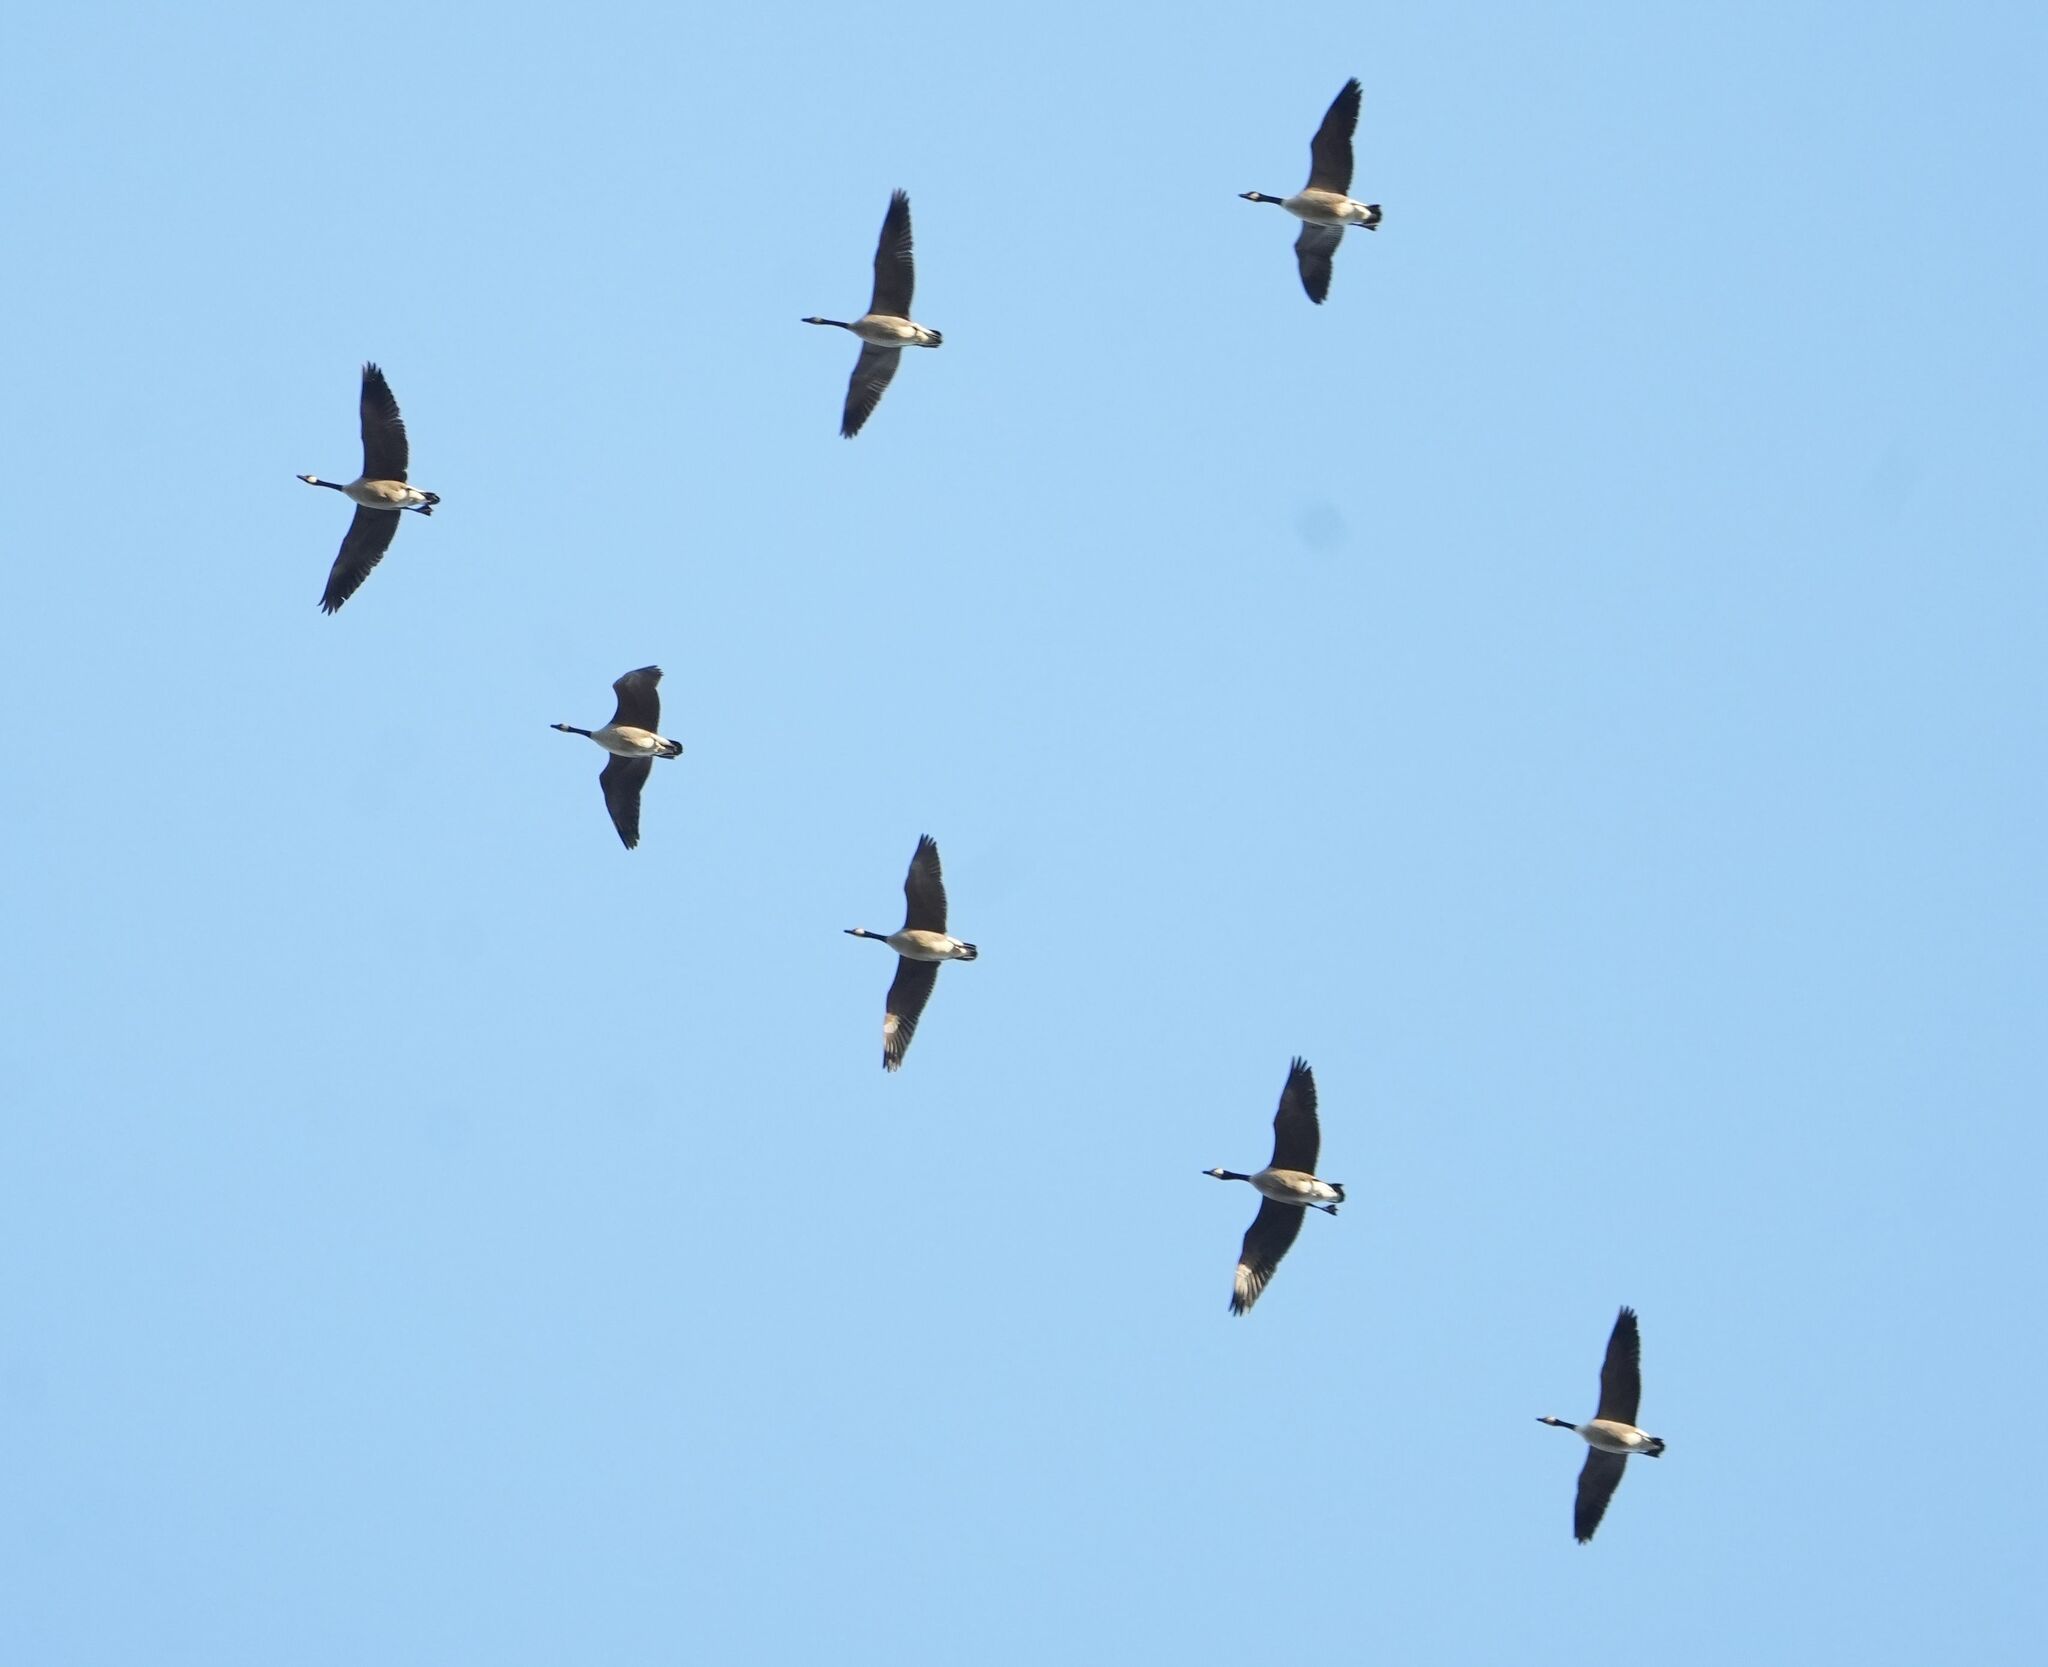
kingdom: Animalia
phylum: Chordata
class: Aves
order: Anseriformes
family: Anatidae
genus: Branta
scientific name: Branta canadensis
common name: Canada goose
